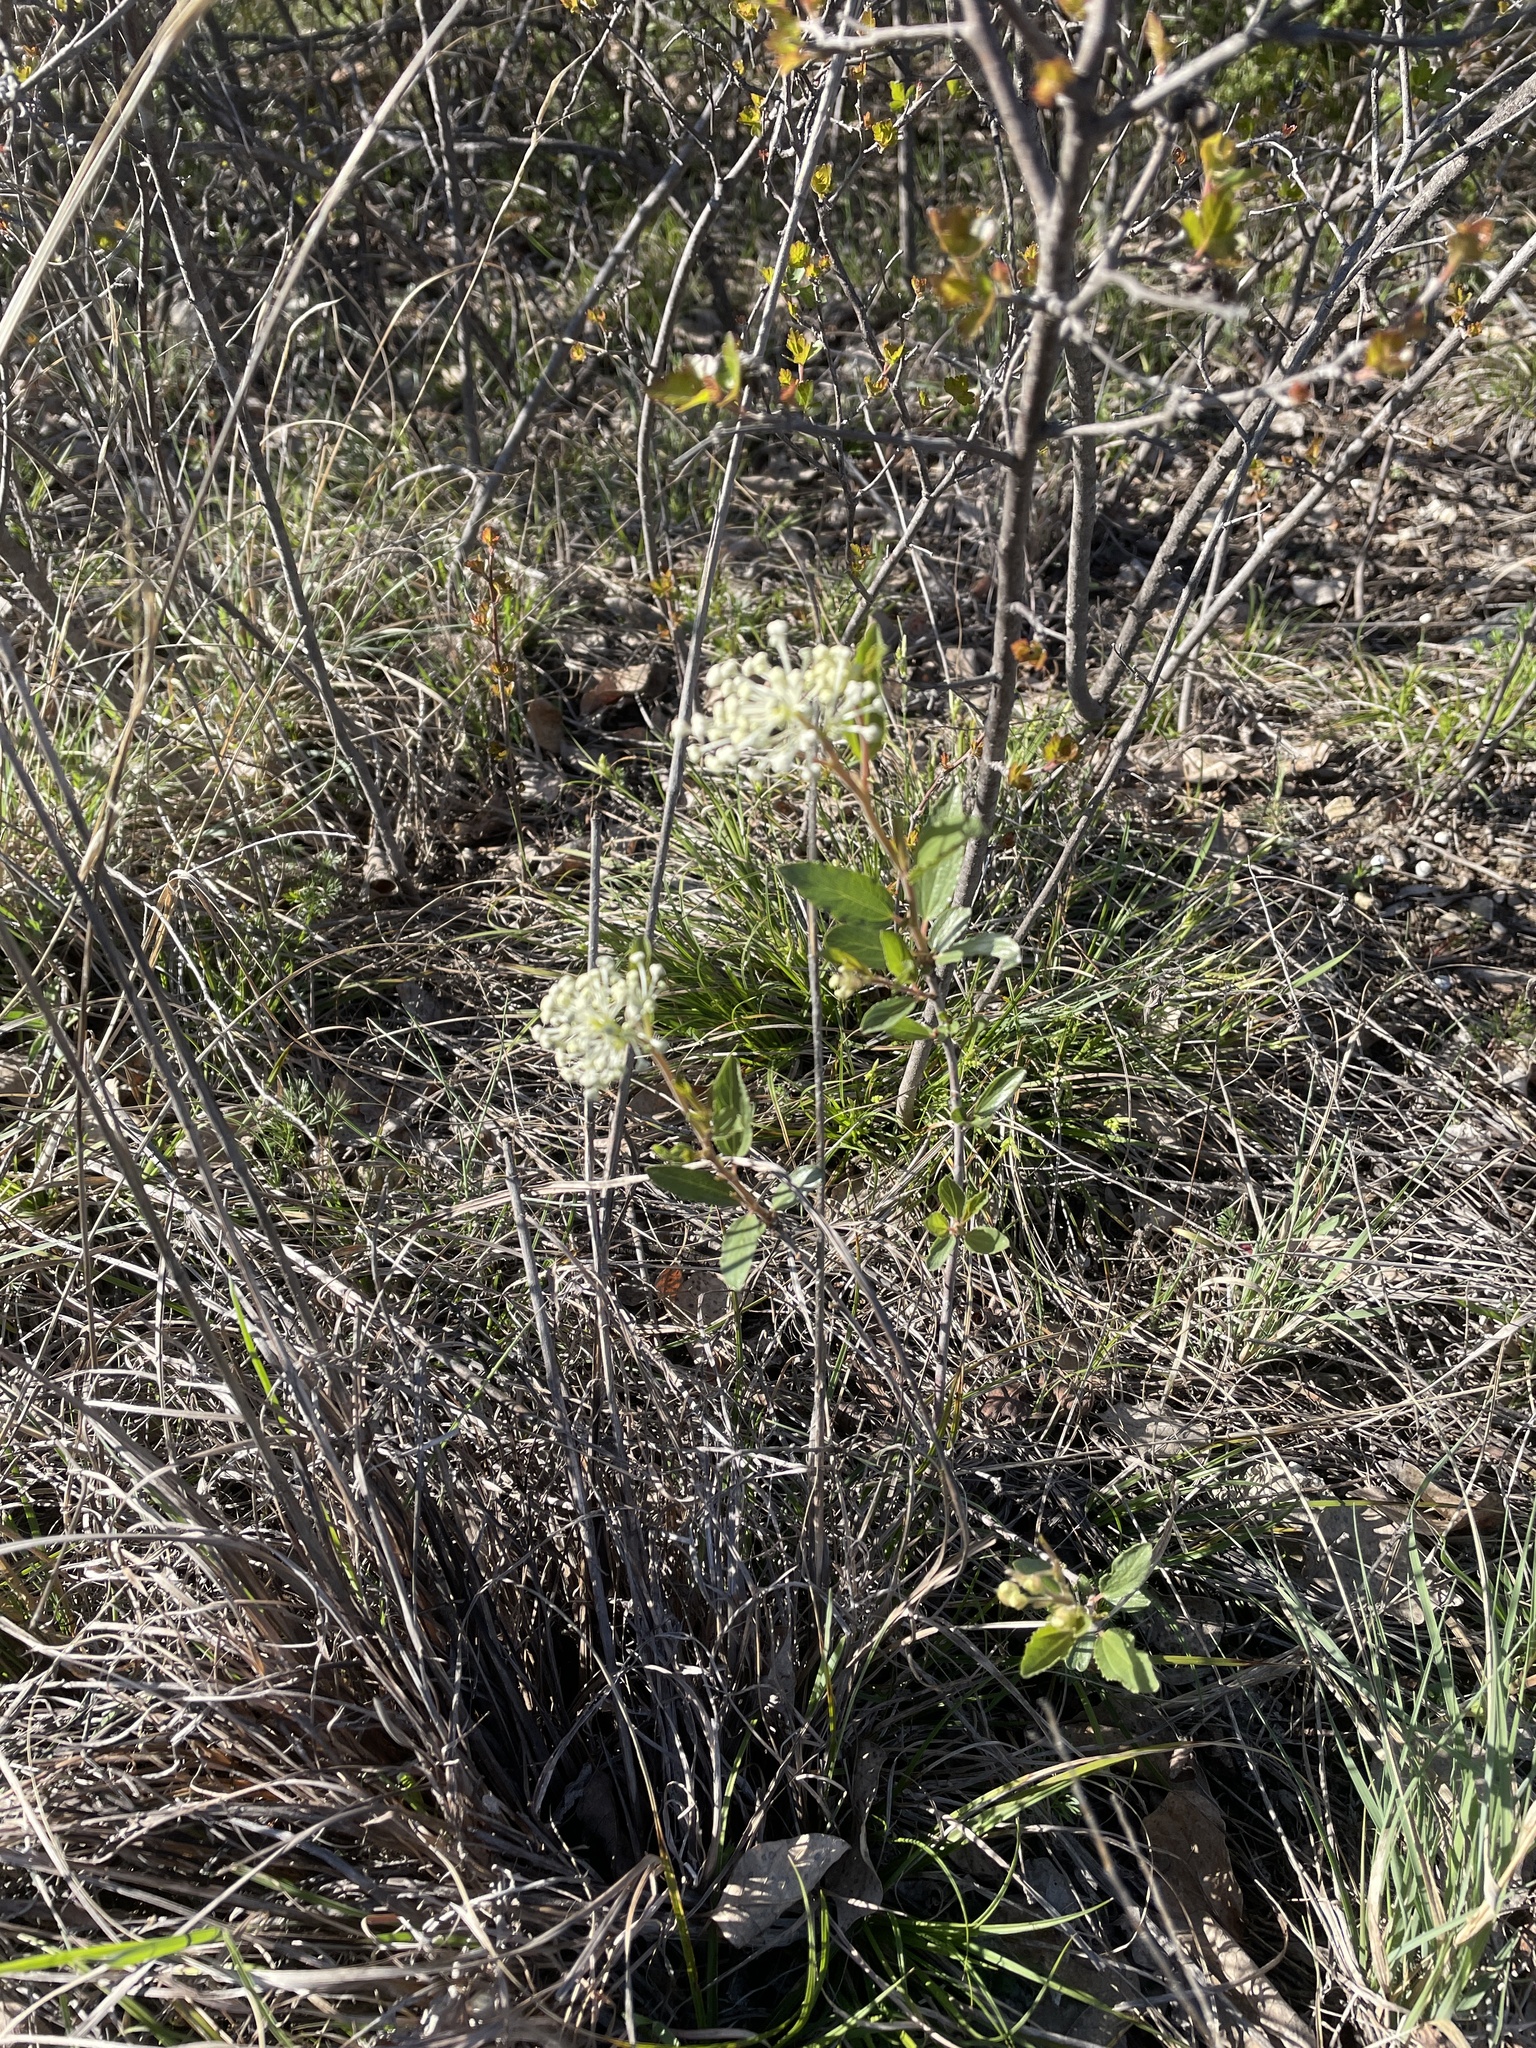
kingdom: Plantae
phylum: Tracheophyta
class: Magnoliopsida
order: Rosales
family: Rhamnaceae
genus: Ceanothus
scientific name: Ceanothus herbaceus
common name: Inland ceanothus
